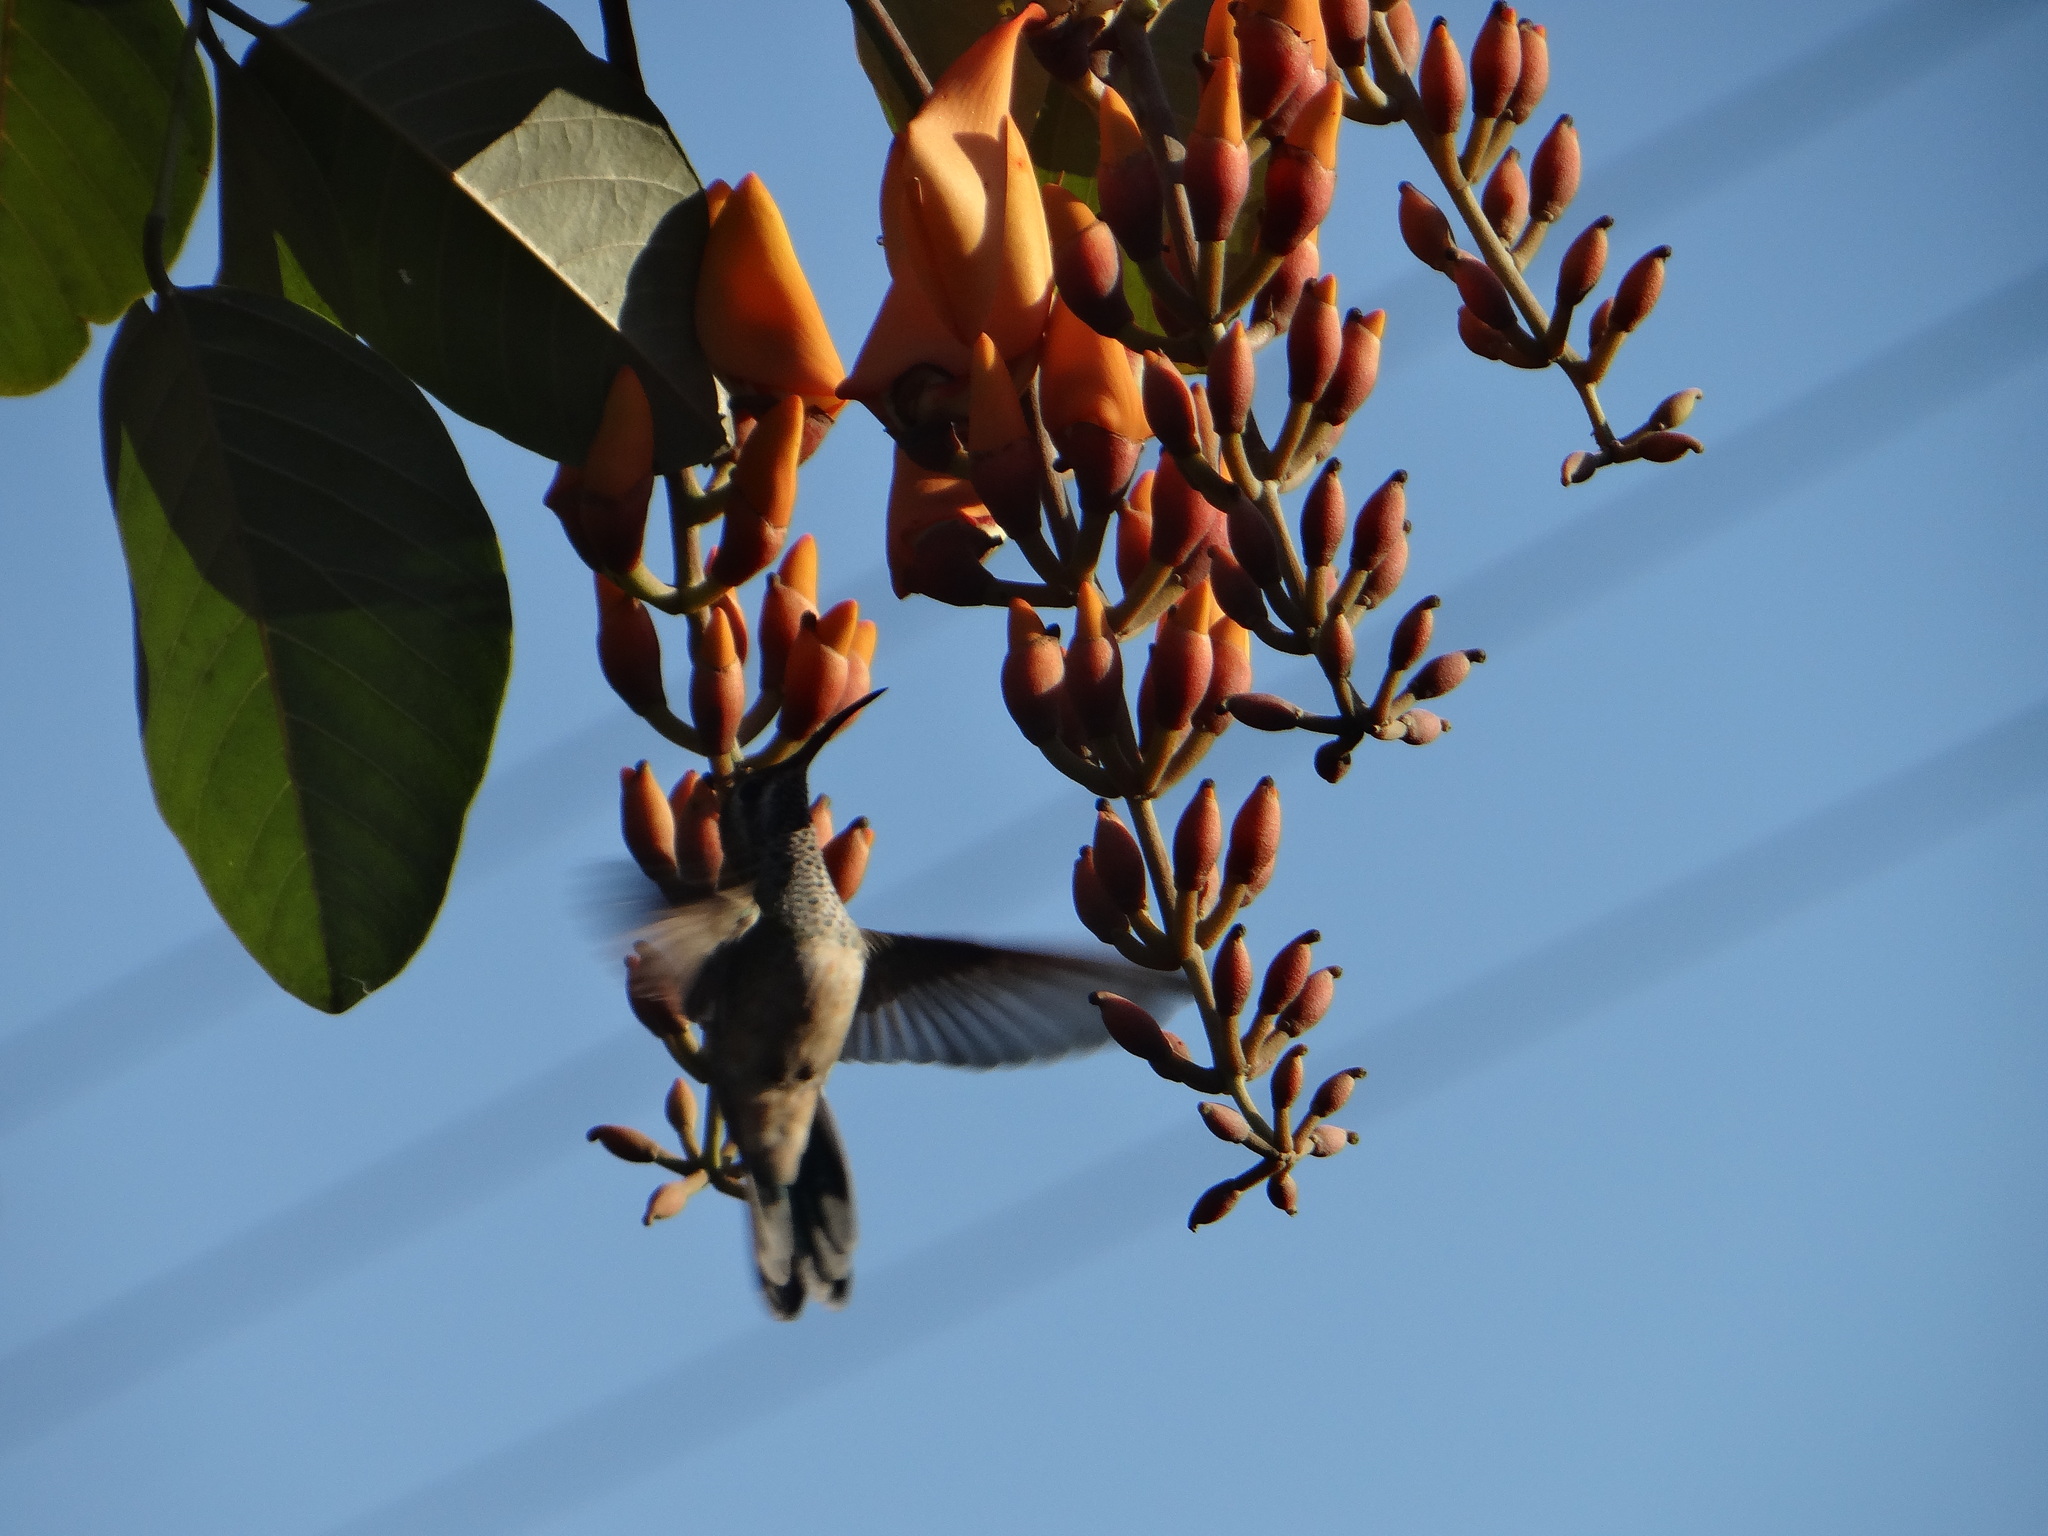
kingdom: Animalia
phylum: Chordata
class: Aves
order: Apodiformes
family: Trochilidae
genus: Polytmus
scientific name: Polytmus guainumbi
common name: White-tailed goldenthroat
